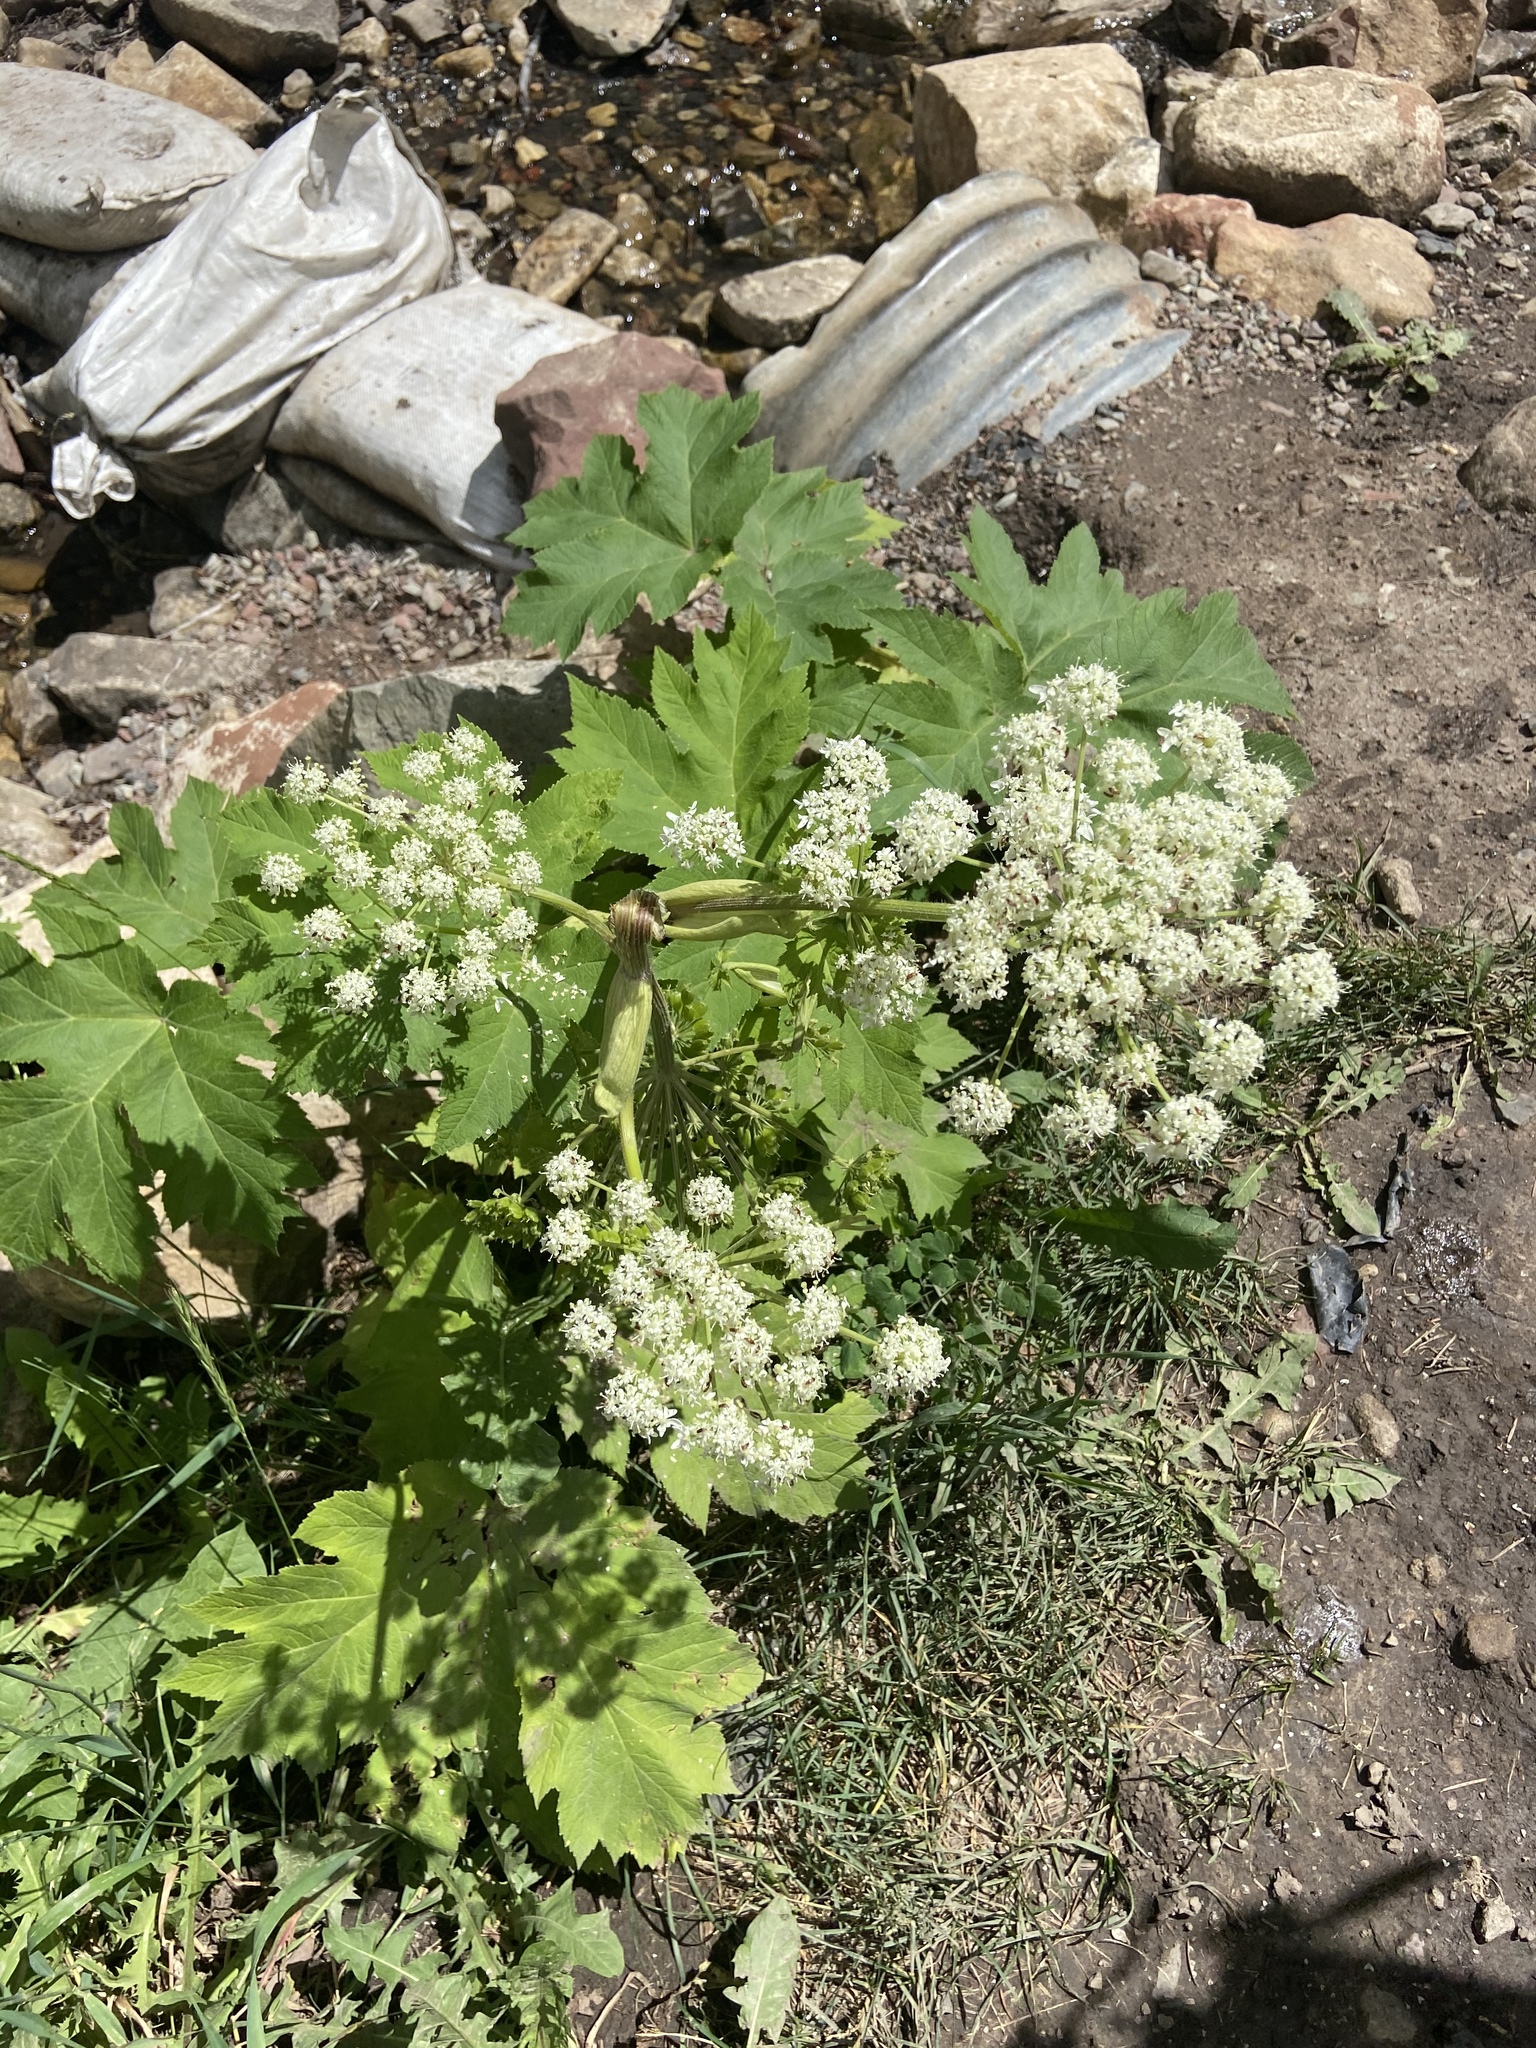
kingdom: Plantae
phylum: Tracheophyta
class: Magnoliopsida
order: Apiales
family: Apiaceae
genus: Heracleum
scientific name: Heracleum maximum
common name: American cow parsnip
